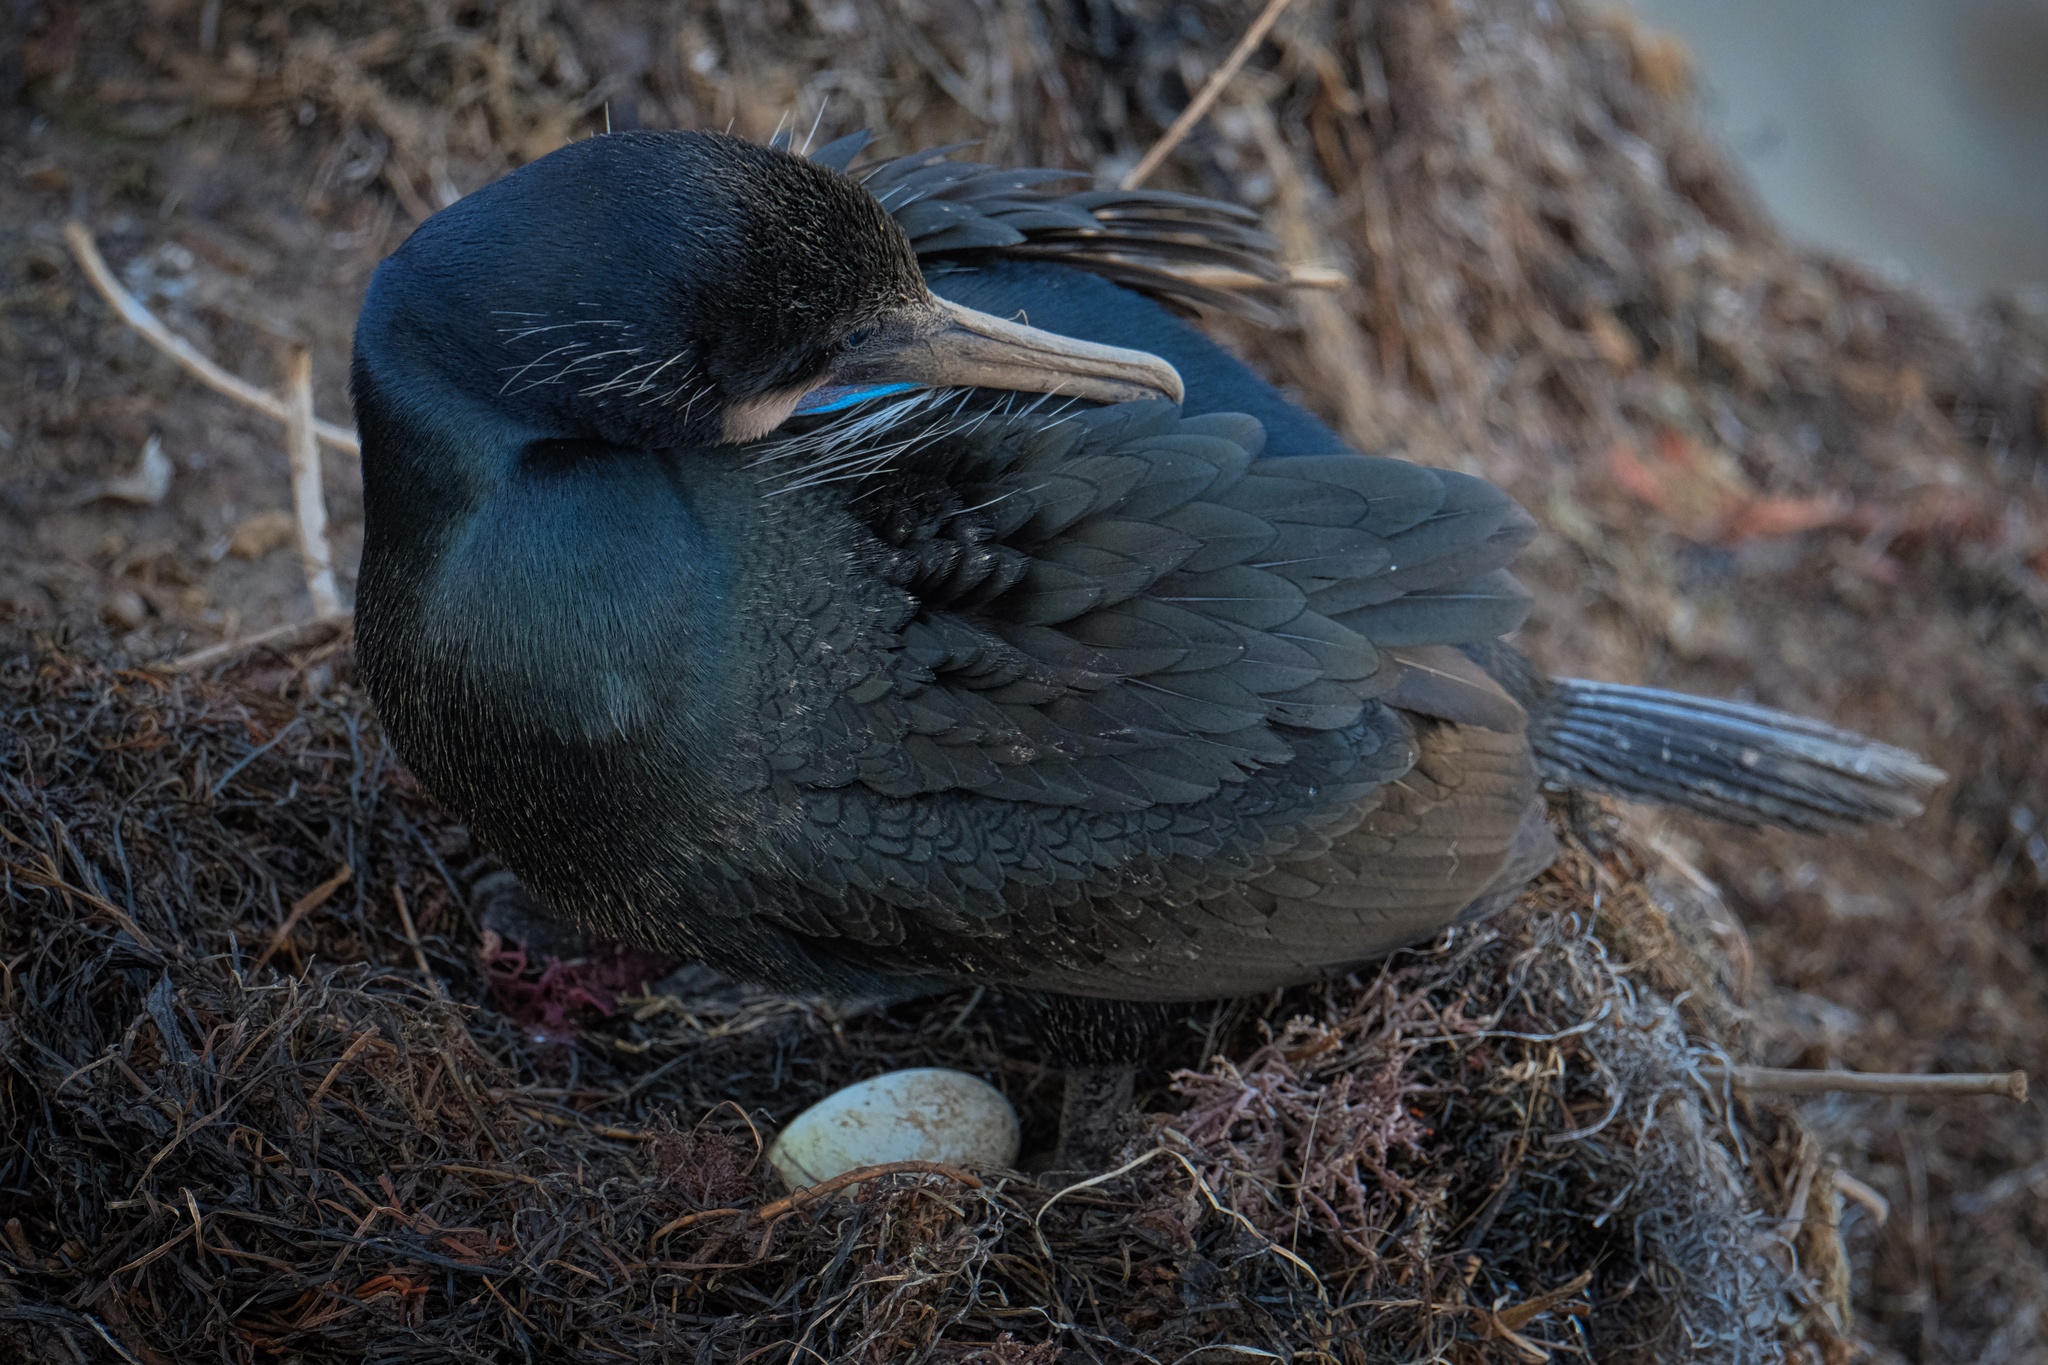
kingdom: Animalia
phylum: Chordata
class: Aves
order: Suliformes
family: Phalacrocoracidae
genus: Urile
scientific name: Urile penicillatus
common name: Brandt's cormorant
